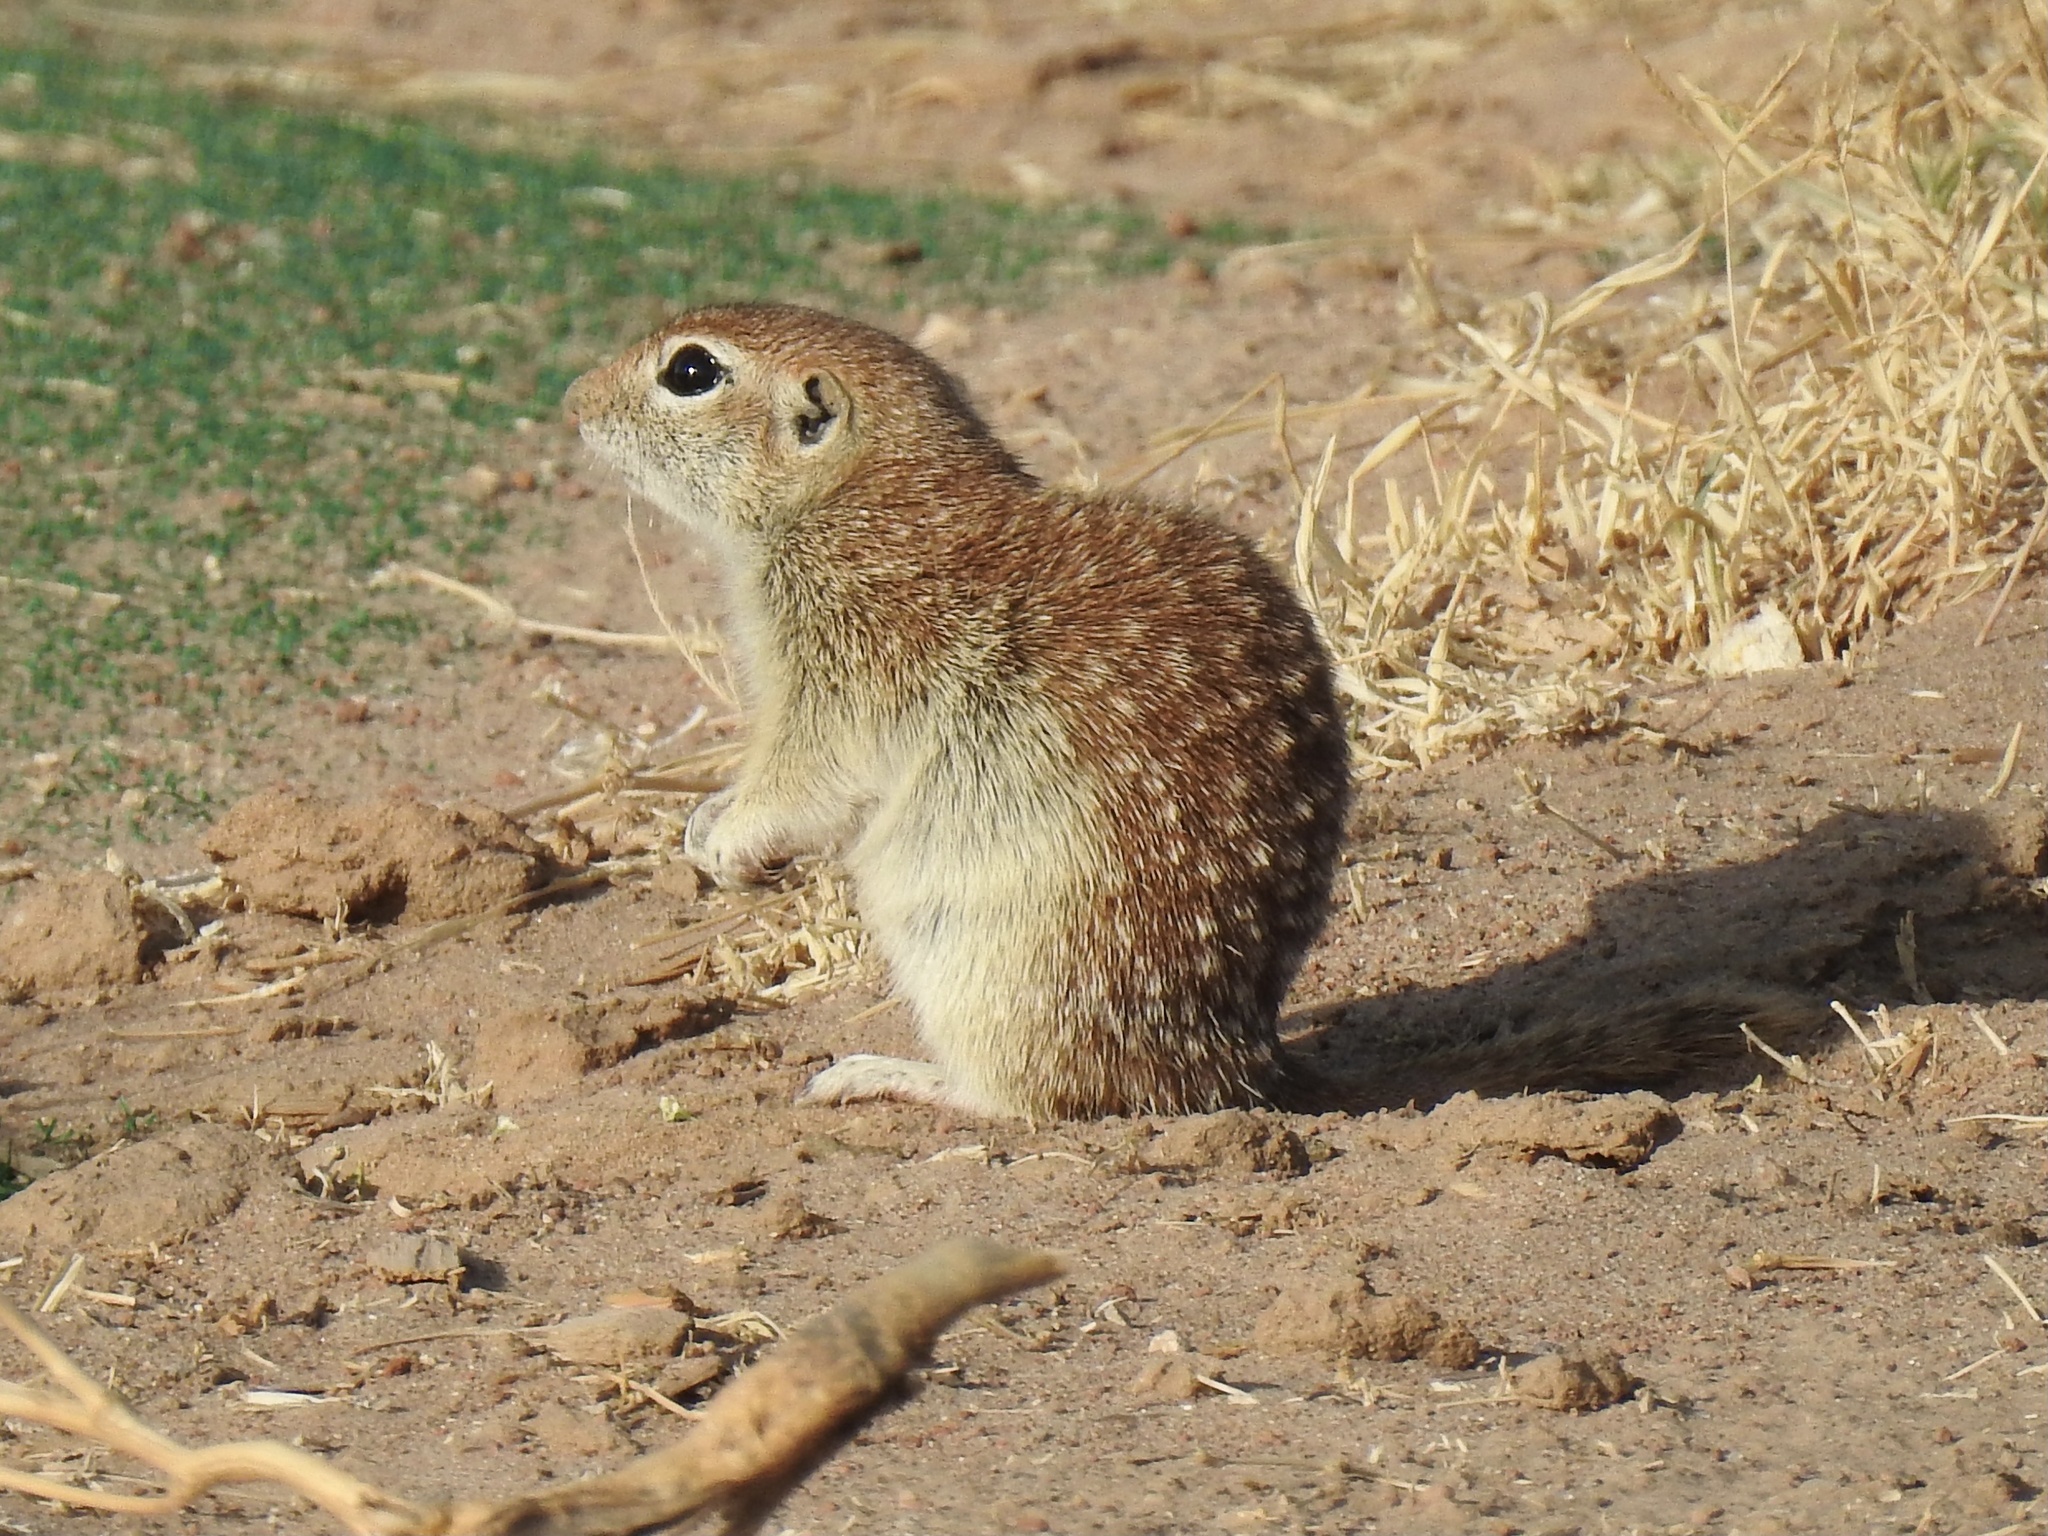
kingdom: Animalia
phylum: Chordata
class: Mammalia
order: Rodentia
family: Sciuridae
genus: Xerospermophilus
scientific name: Xerospermophilus spilosoma
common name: Spotted ground squirrel
